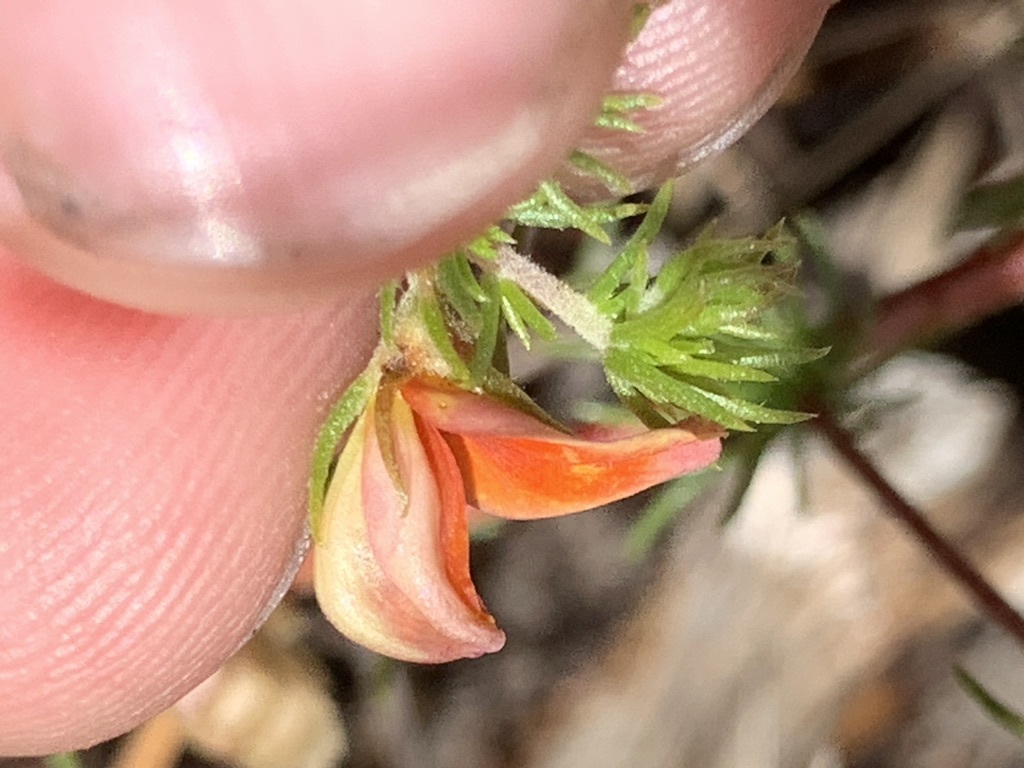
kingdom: Plantae
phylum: Tracheophyta
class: Magnoliopsida
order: Fabales
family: Fabaceae
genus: Aspalathus
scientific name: Aspalathus retroflexa
